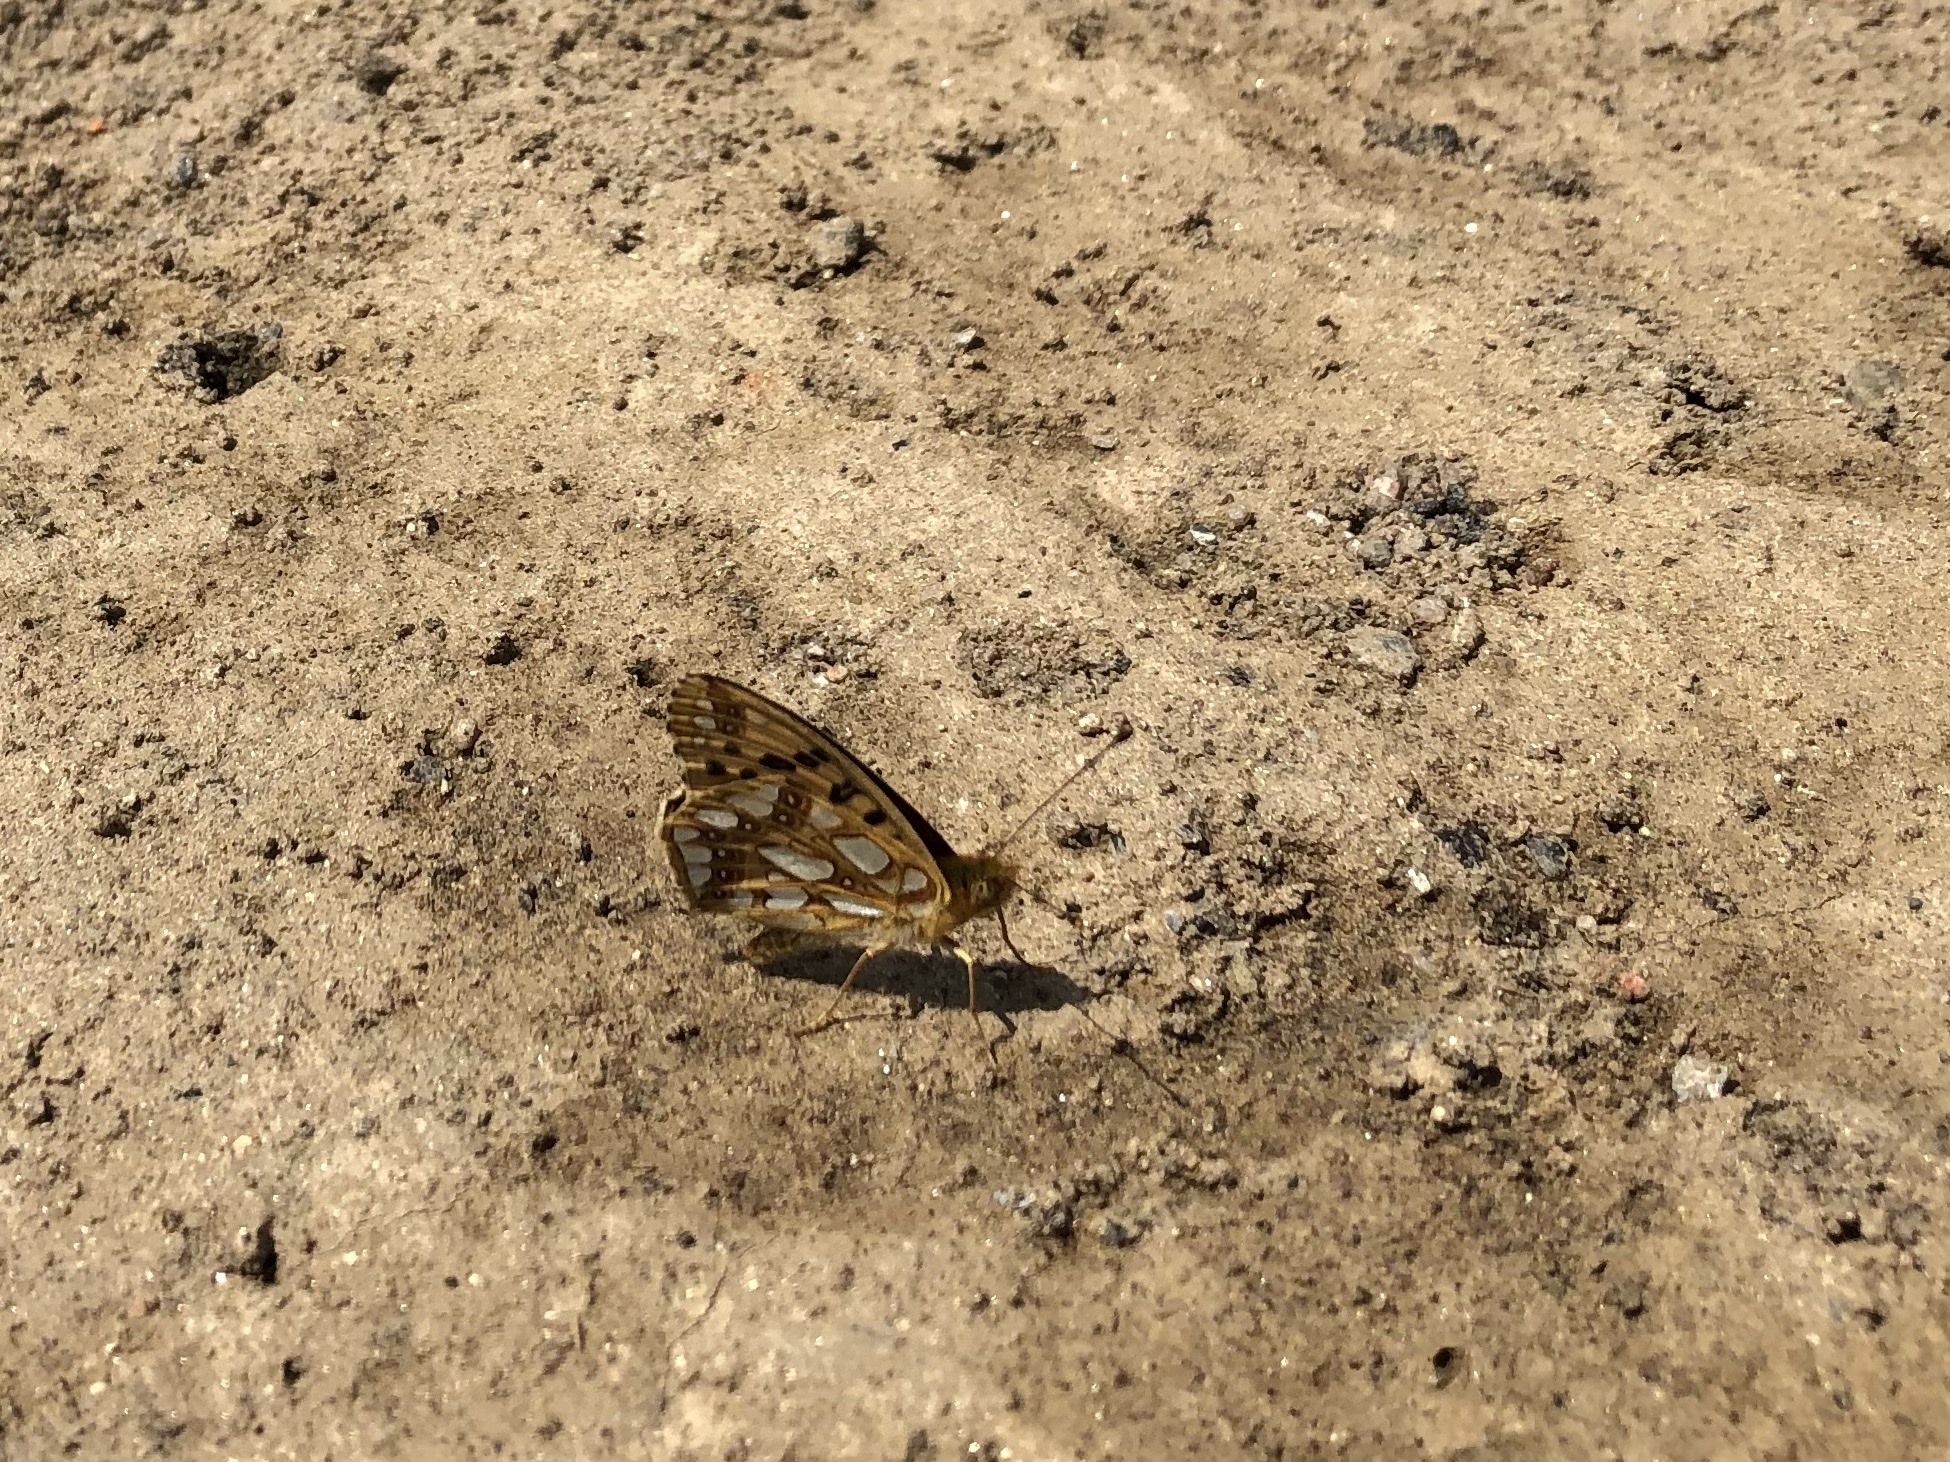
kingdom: Animalia
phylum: Arthropoda
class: Insecta
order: Lepidoptera
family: Nymphalidae
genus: Issoria
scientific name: Issoria lathonia
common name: Queen of spain fritillary
